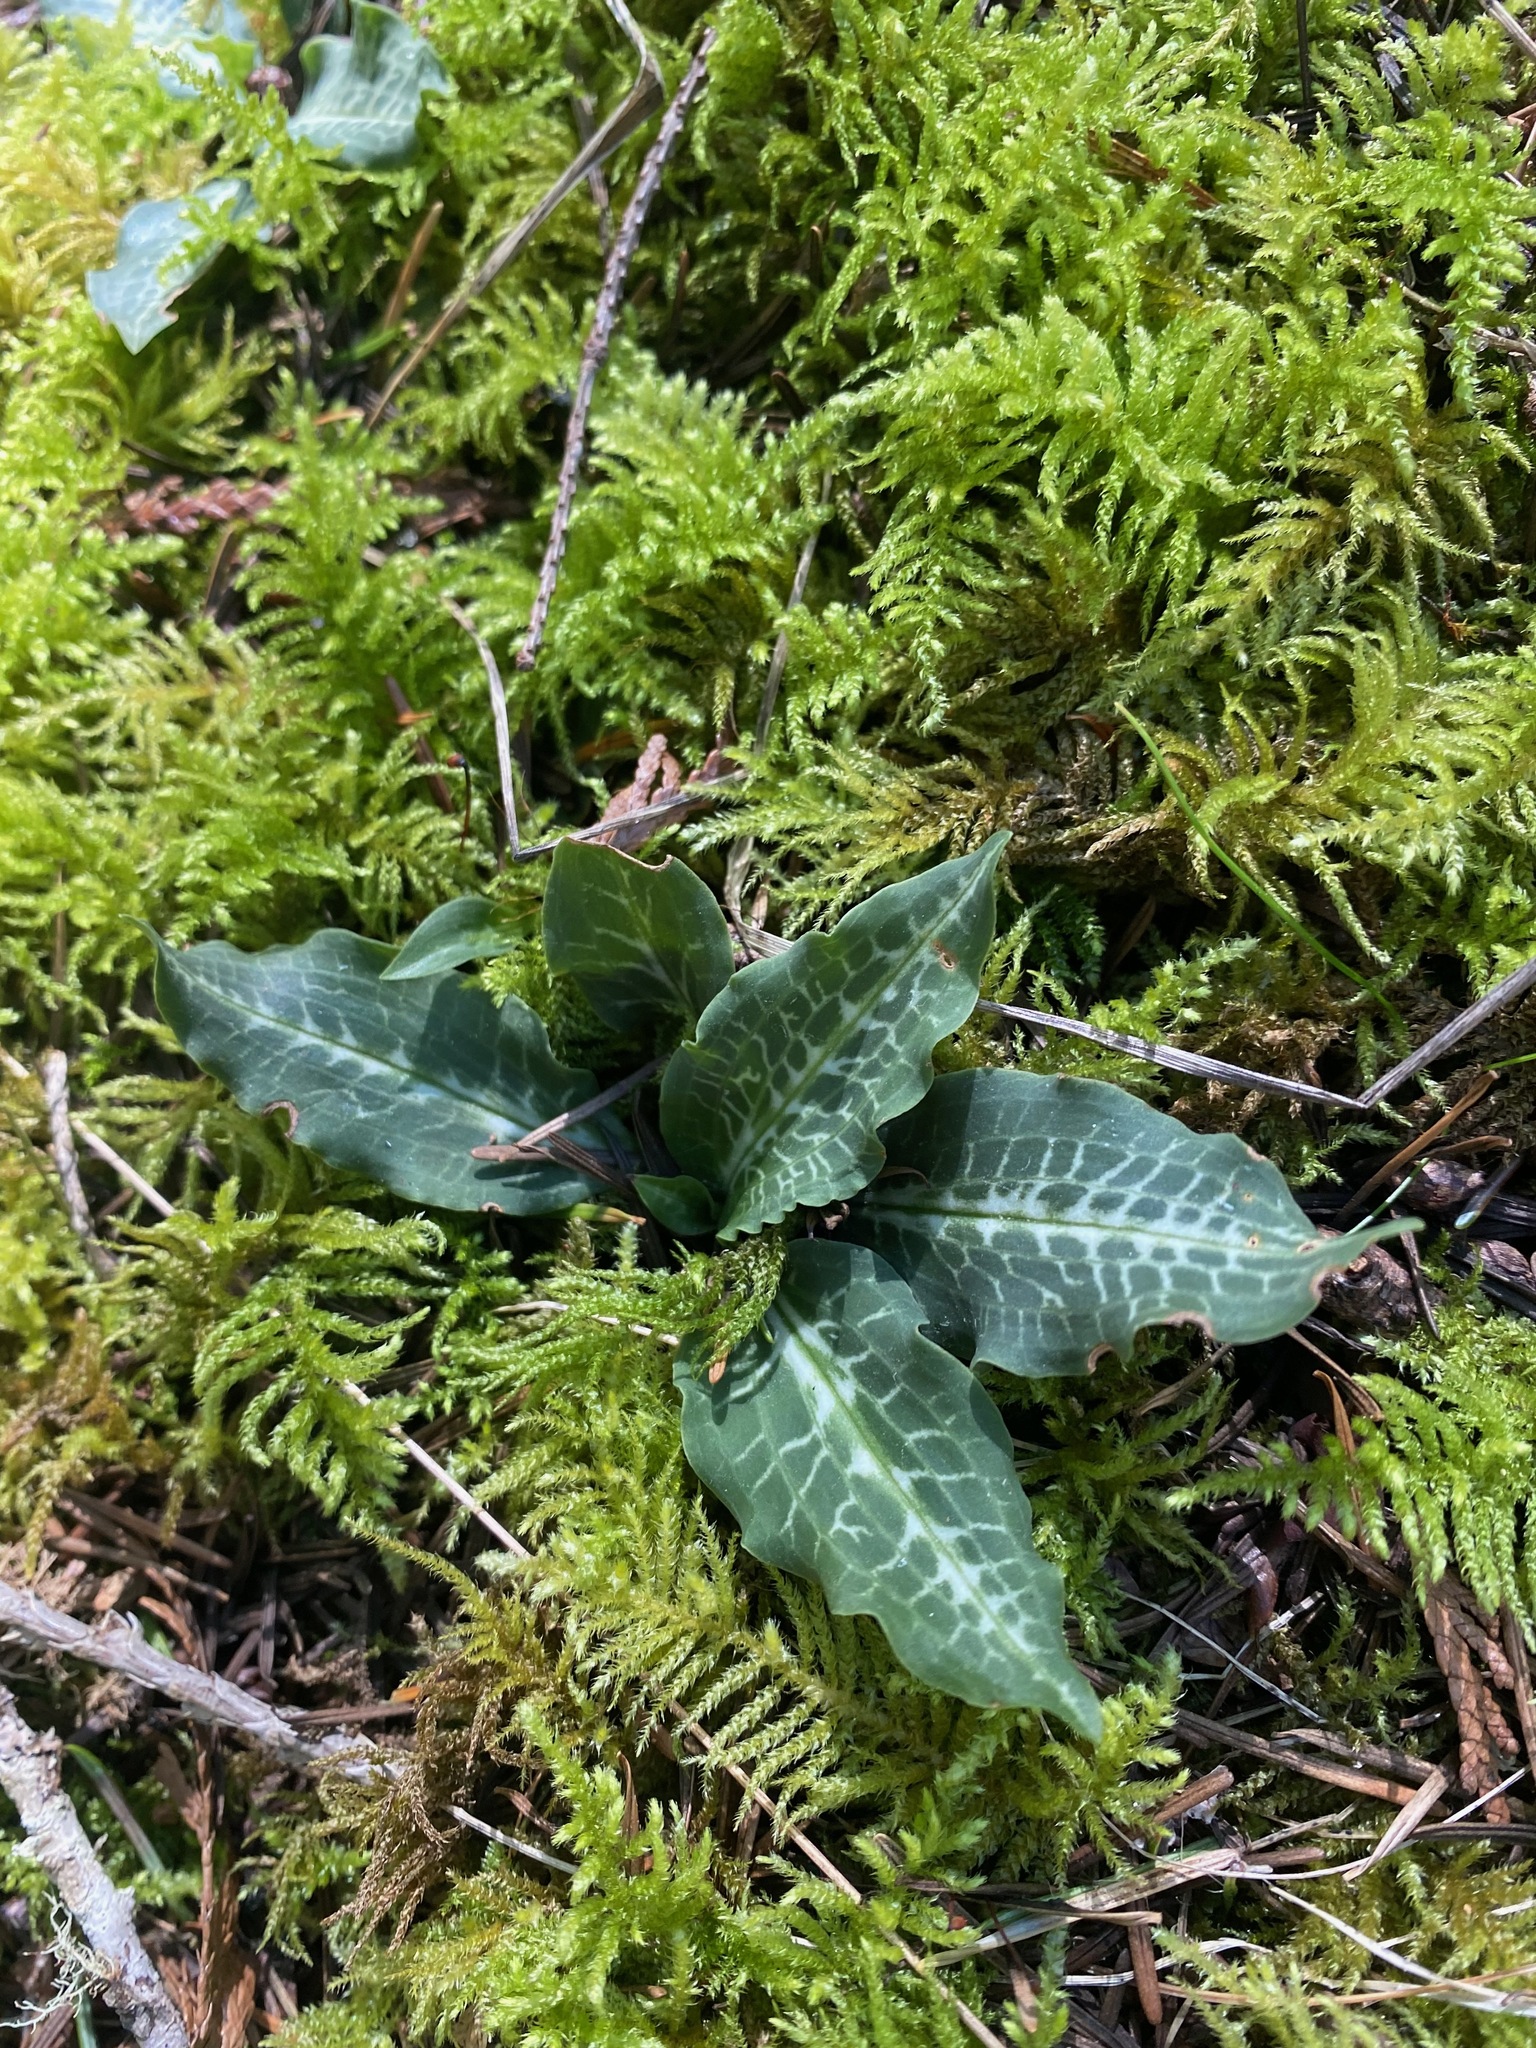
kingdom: Plantae
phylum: Tracheophyta
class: Liliopsida
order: Asparagales
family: Orchidaceae
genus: Goodyera
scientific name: Goodyera oblongifolia
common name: Giant rattlesnake-plantain
